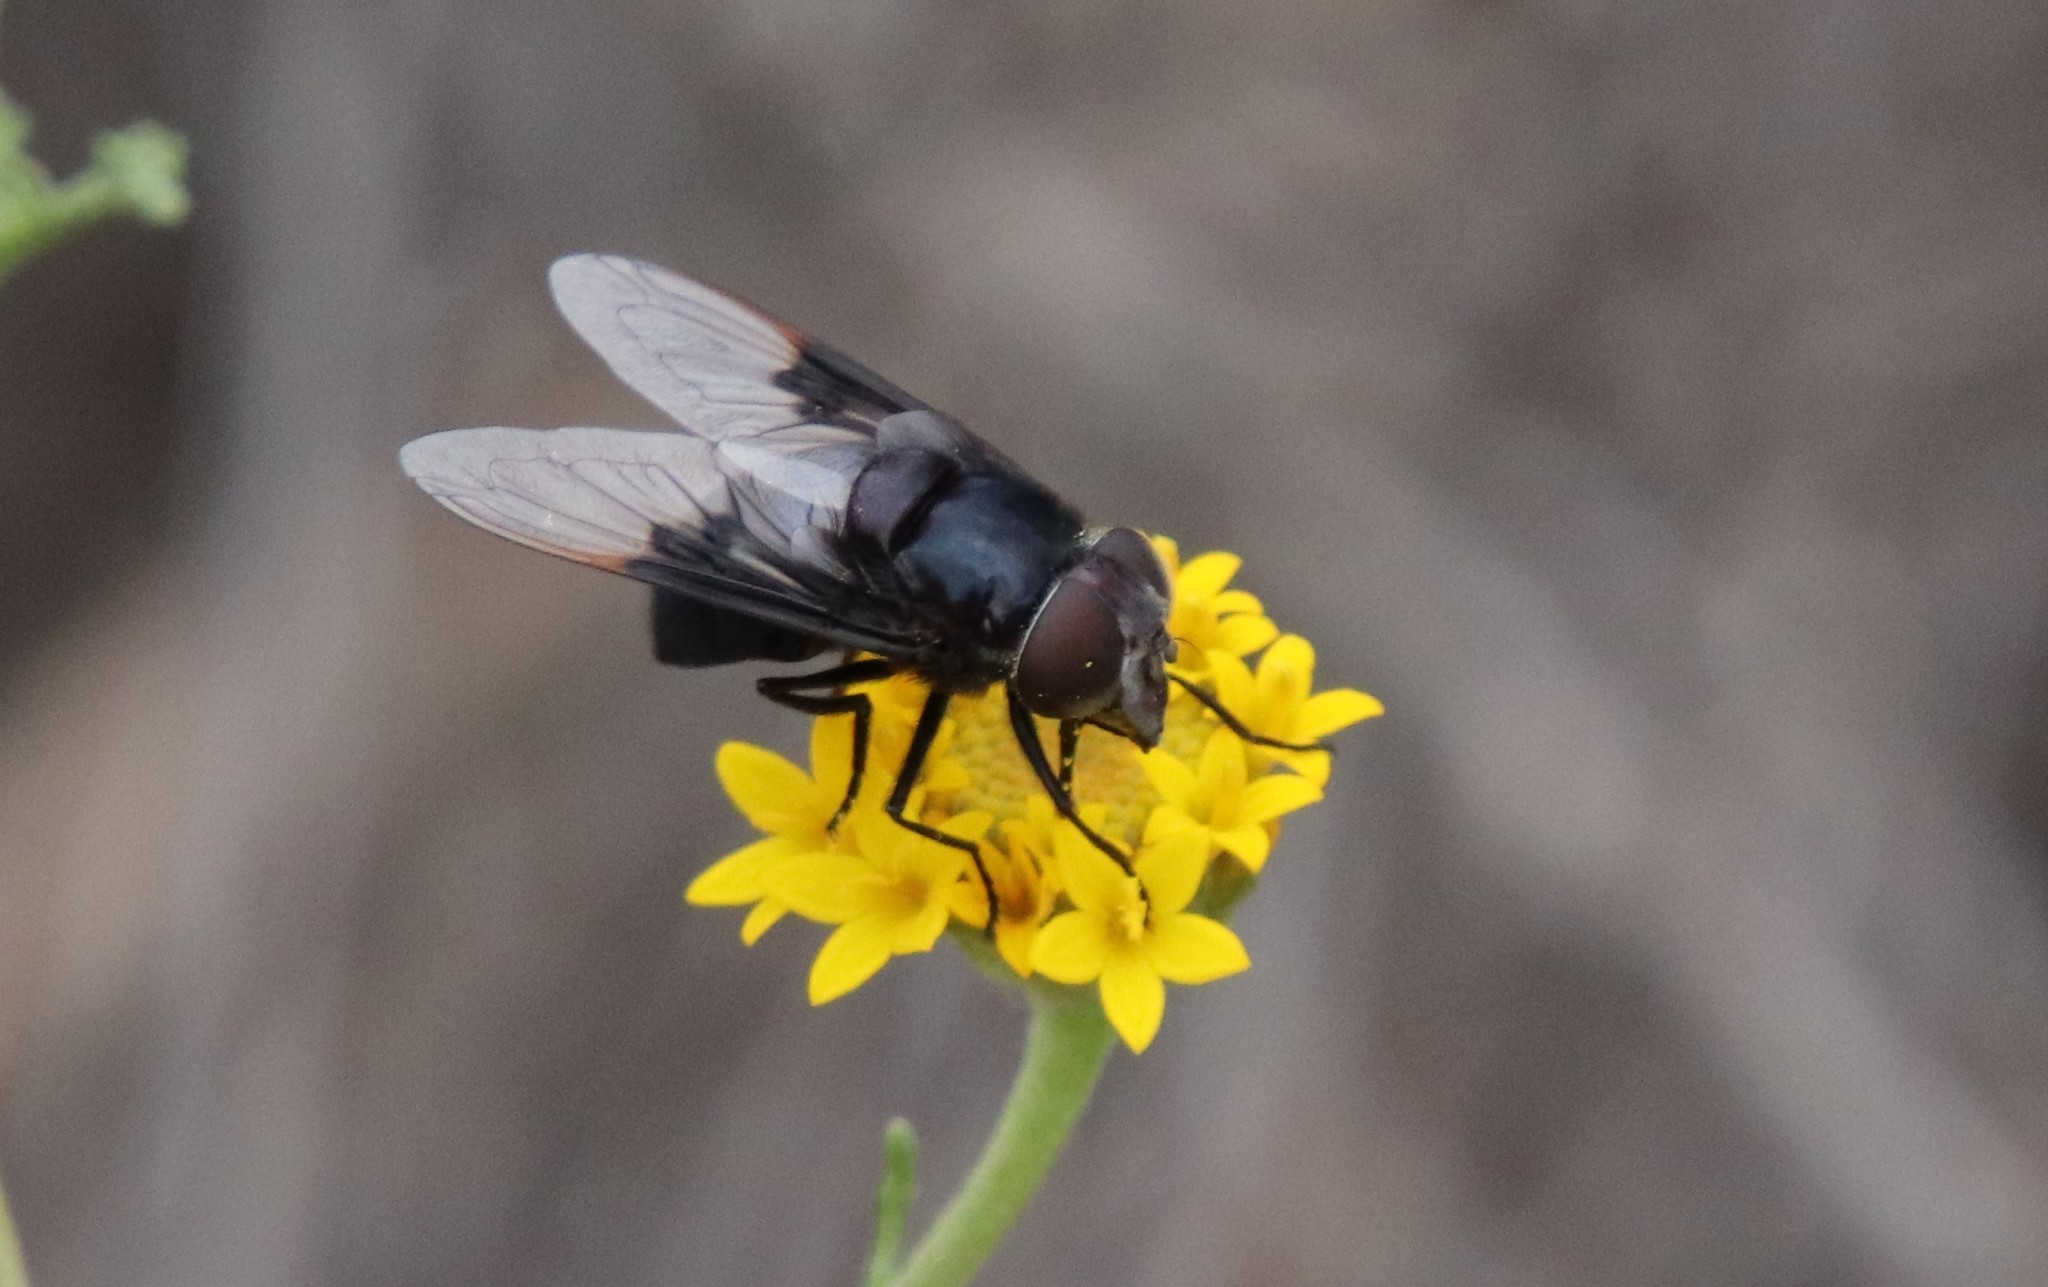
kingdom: Animalia
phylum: Arthropoda
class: Insecta
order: Diptera
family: Syrphidae
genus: Copestylum
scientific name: Copestylum mexicanum
